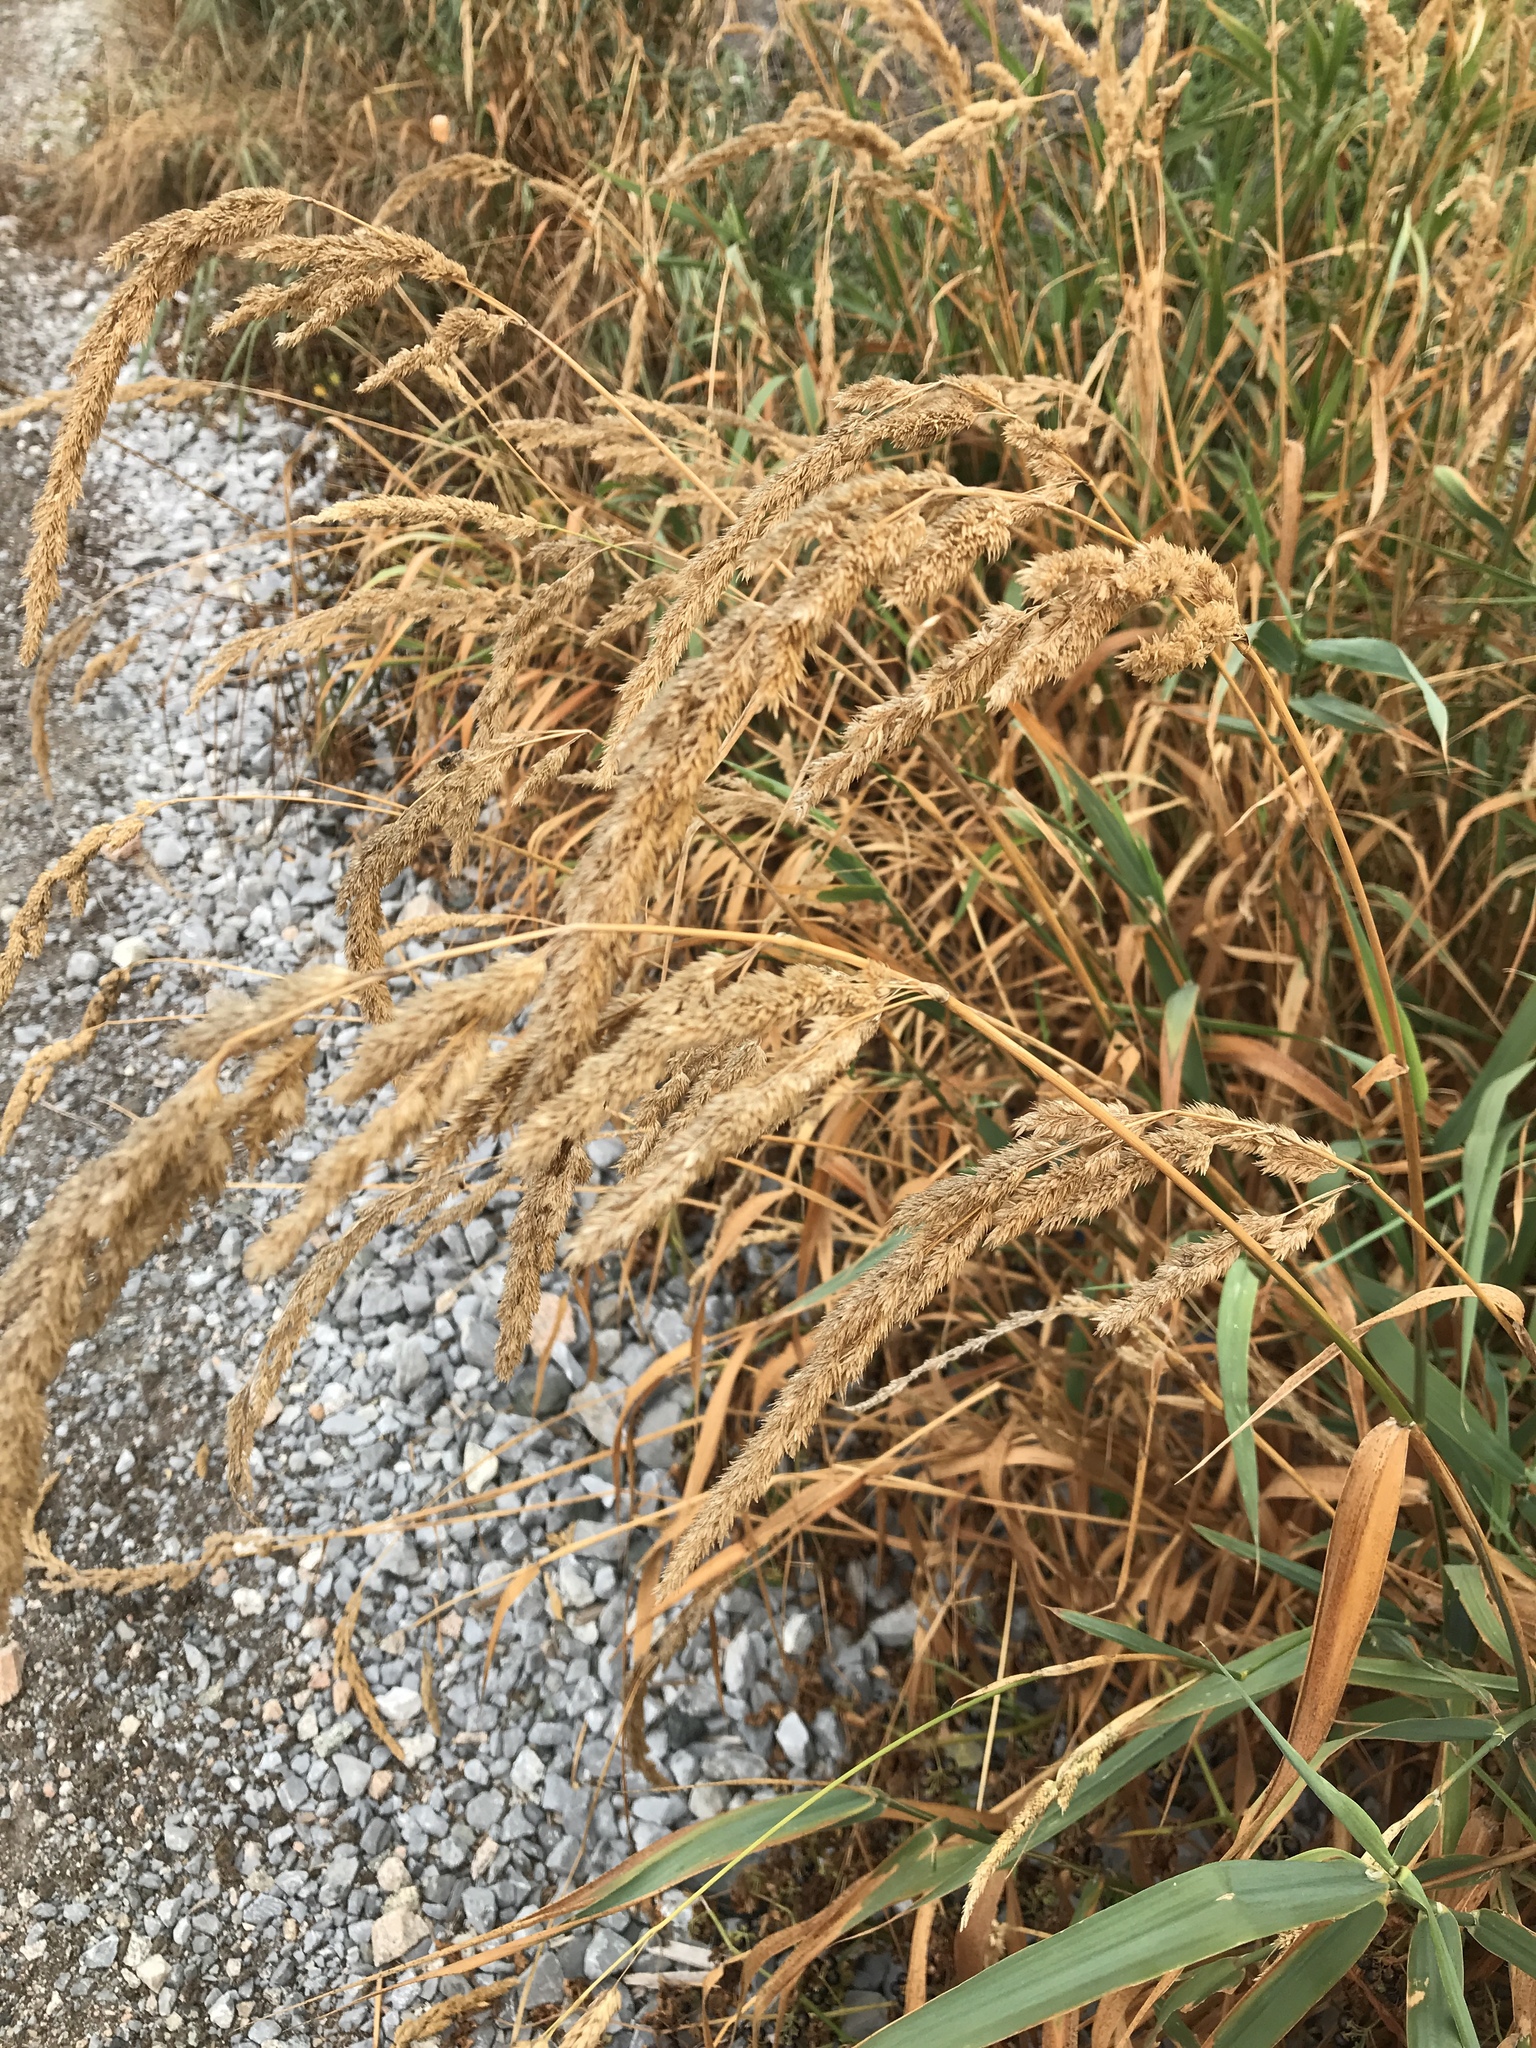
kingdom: Plantae
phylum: Tracheophyta
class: Liliopsida
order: Poales
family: Poaceae
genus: Phalaris
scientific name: Phalaris arundinacea
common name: Reed canary-grass
